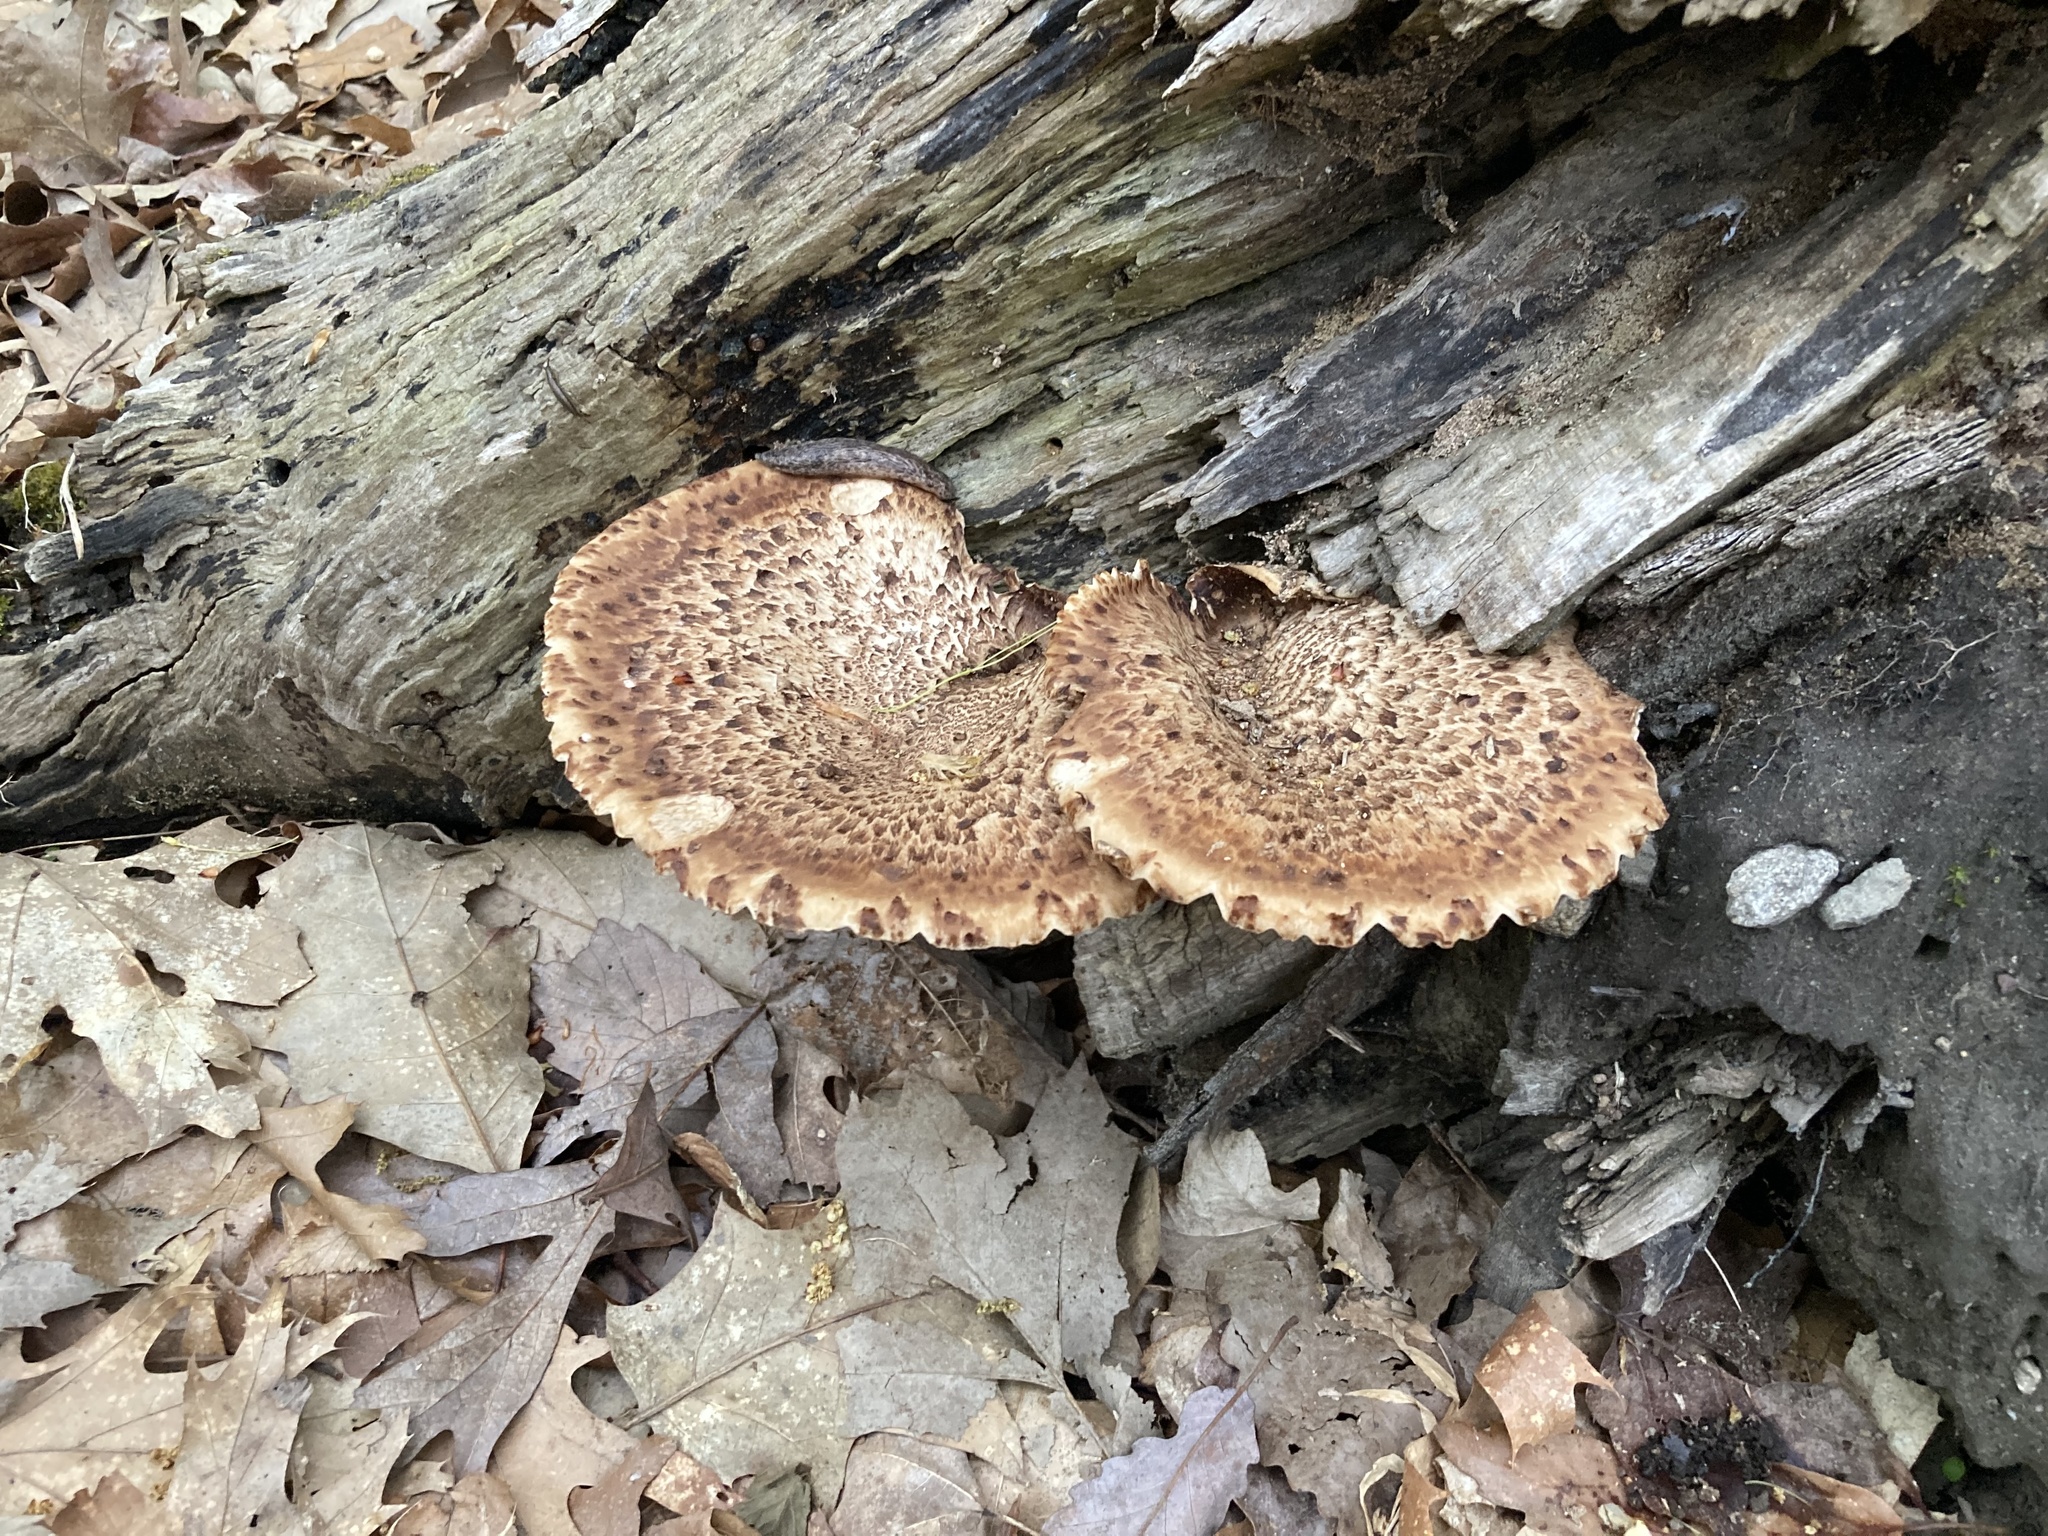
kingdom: Fungi
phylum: Basidiomycota
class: Agaricomycetes
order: Polyporales
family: Polyporaceae
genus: Cerioporus
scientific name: Cerioporus squamosus
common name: Dryad's saddle
